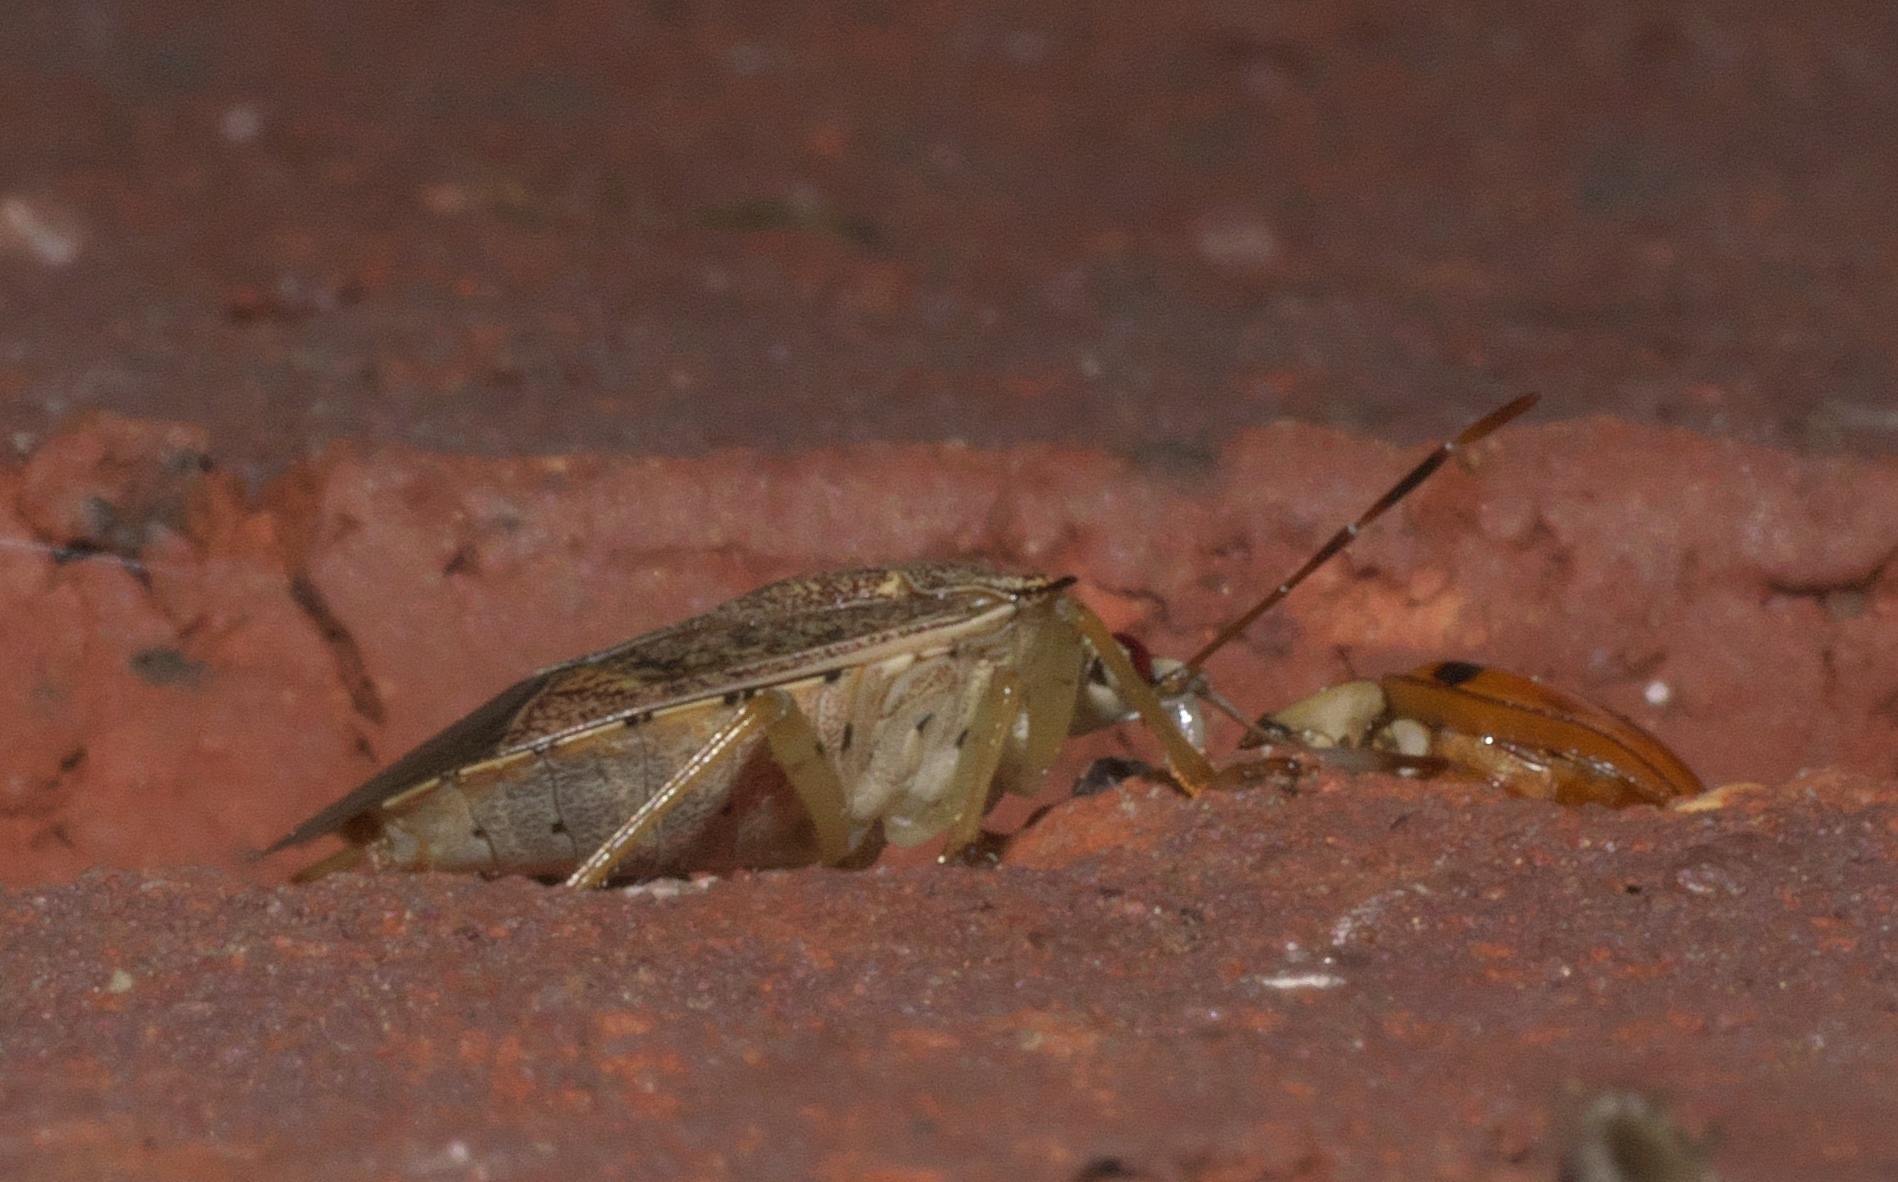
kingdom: Animalia
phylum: Arthropoda
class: Insecta
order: Hemiptera
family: Pentatomidae
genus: Podisus
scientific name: Podisus maculiventris
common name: Spined soldier bug
